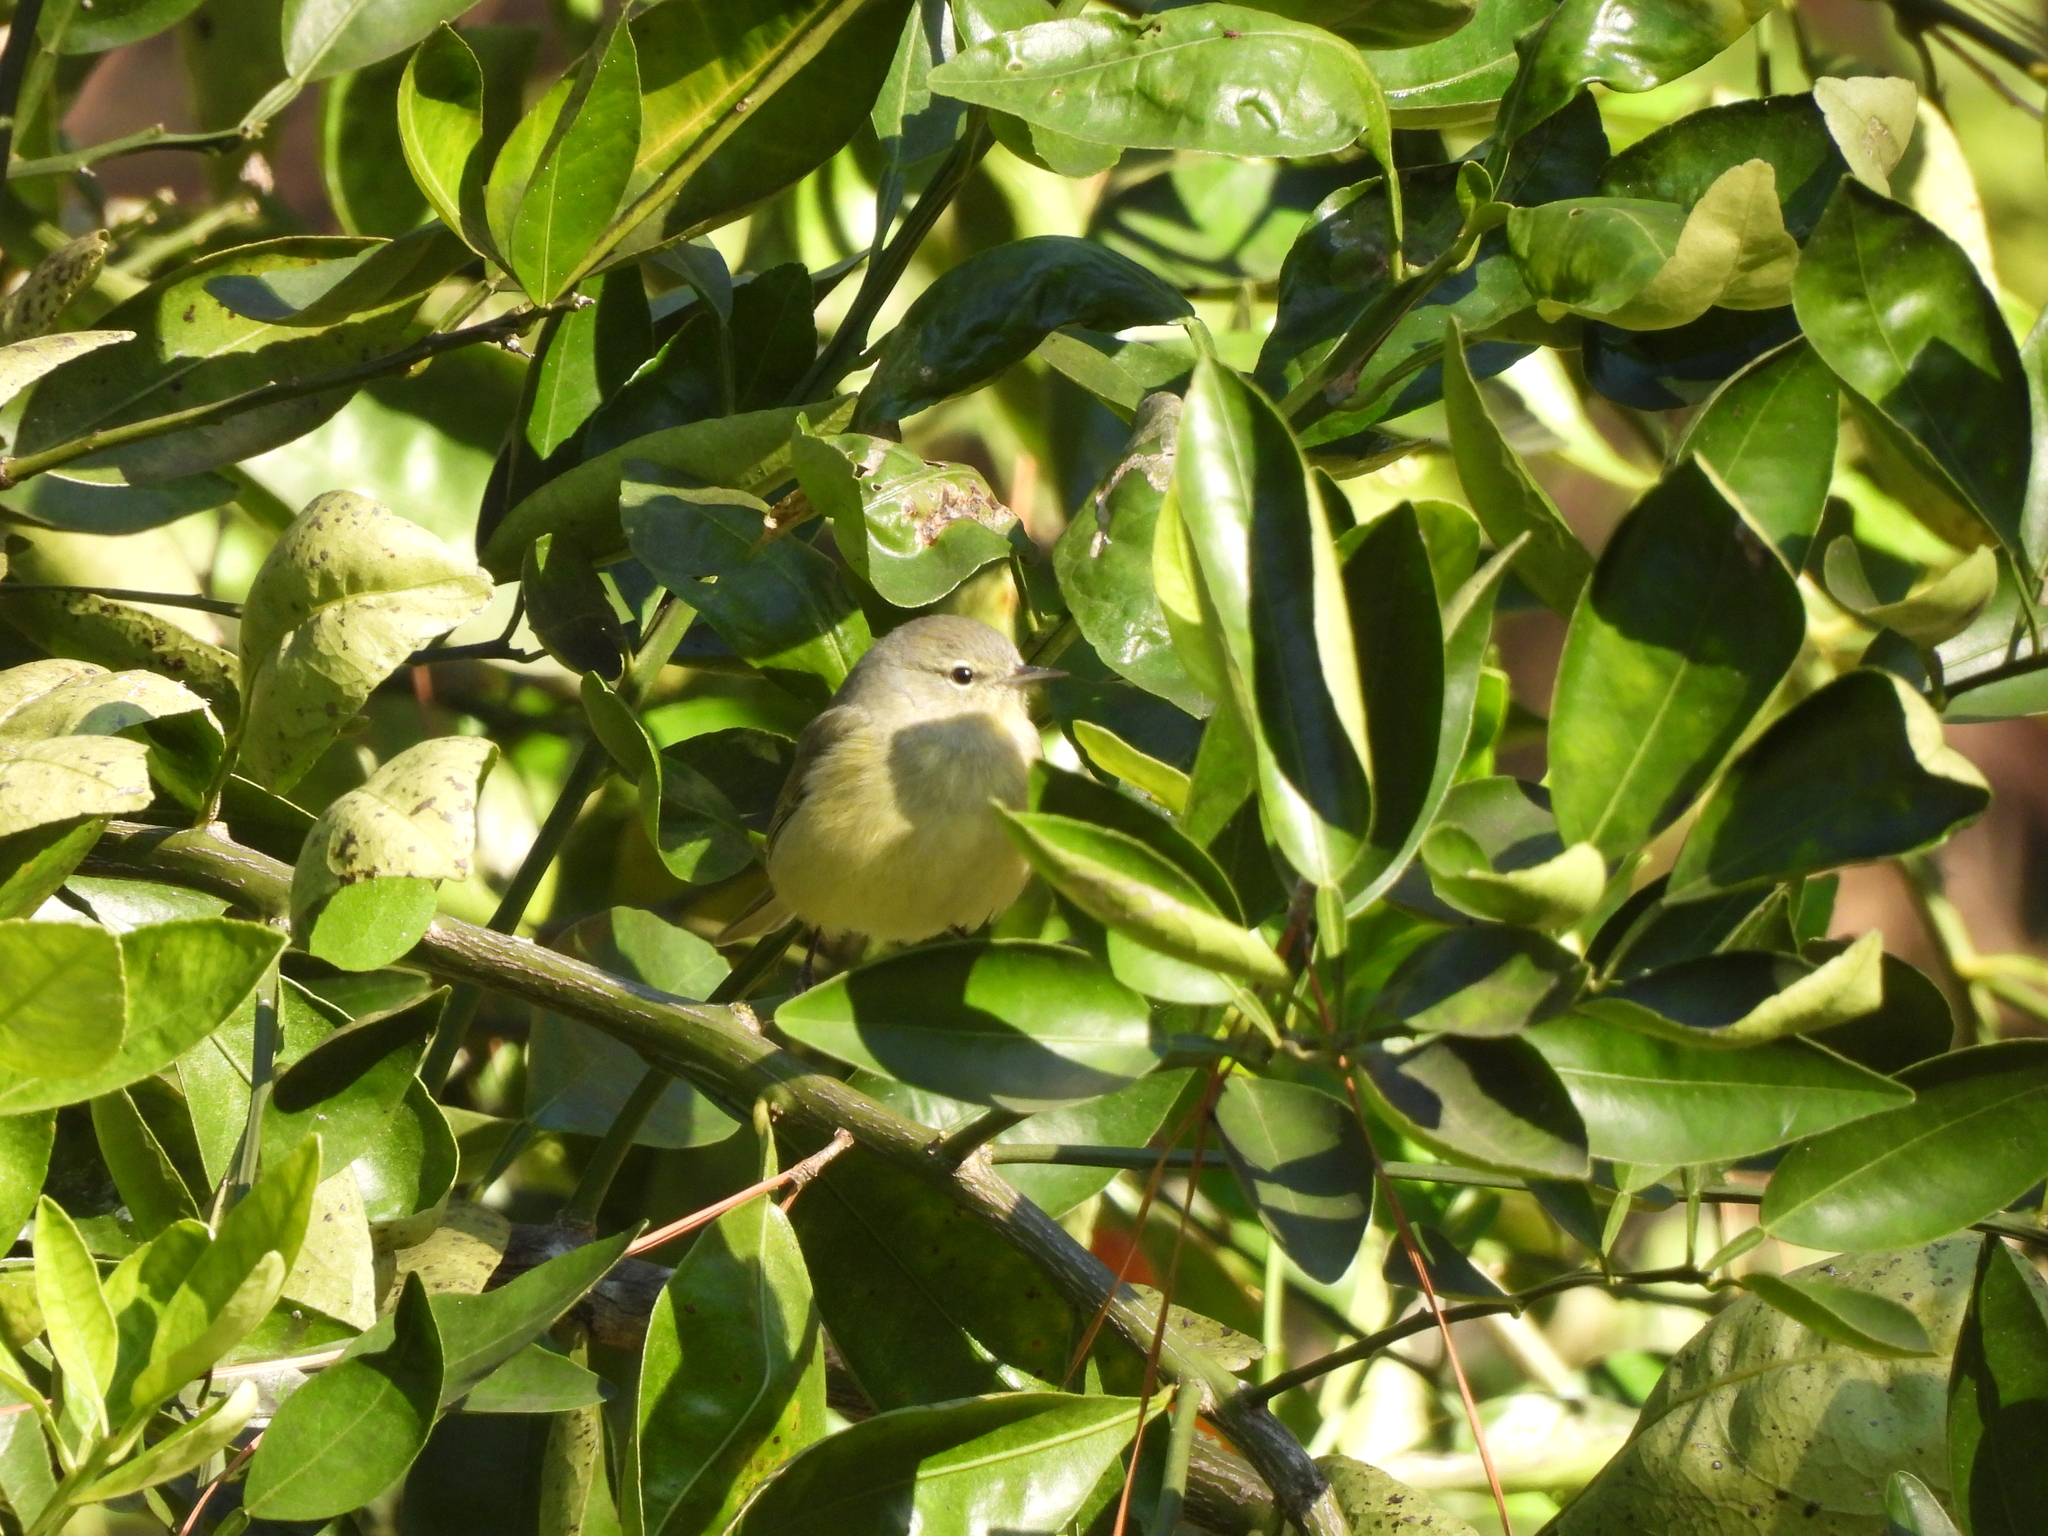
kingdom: Animalia
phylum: Chordata
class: Aves
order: Passeriformes
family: Parulidae
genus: Leiothlypis
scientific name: Leiothlypis celata
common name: Orange-crowned warbler
